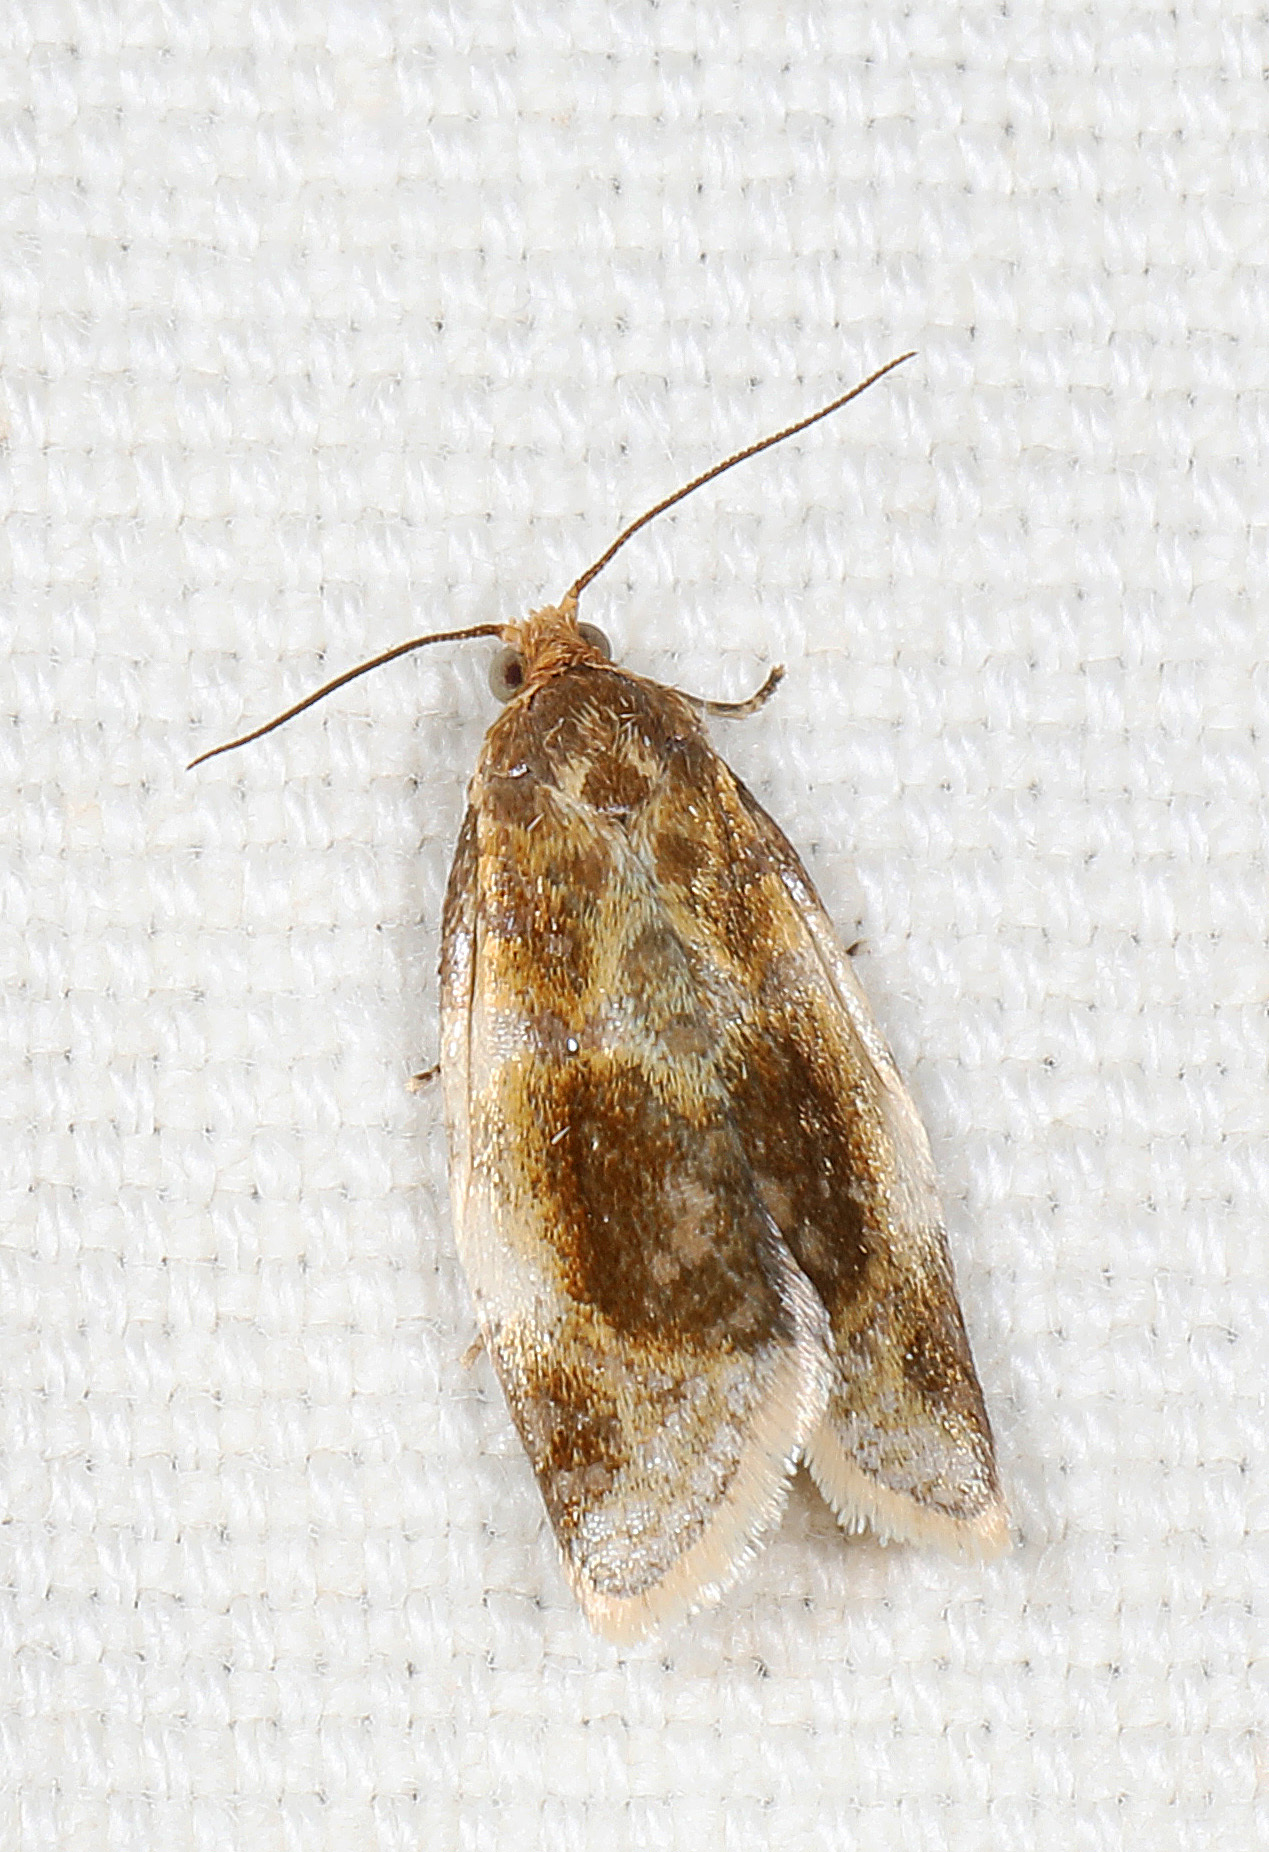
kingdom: Animalia
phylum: Arthropoda
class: Insecta
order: Lepidoptera
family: Tortricidae
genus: Clepsis
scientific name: Clepsis melaleucanus
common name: American apple tortrix
